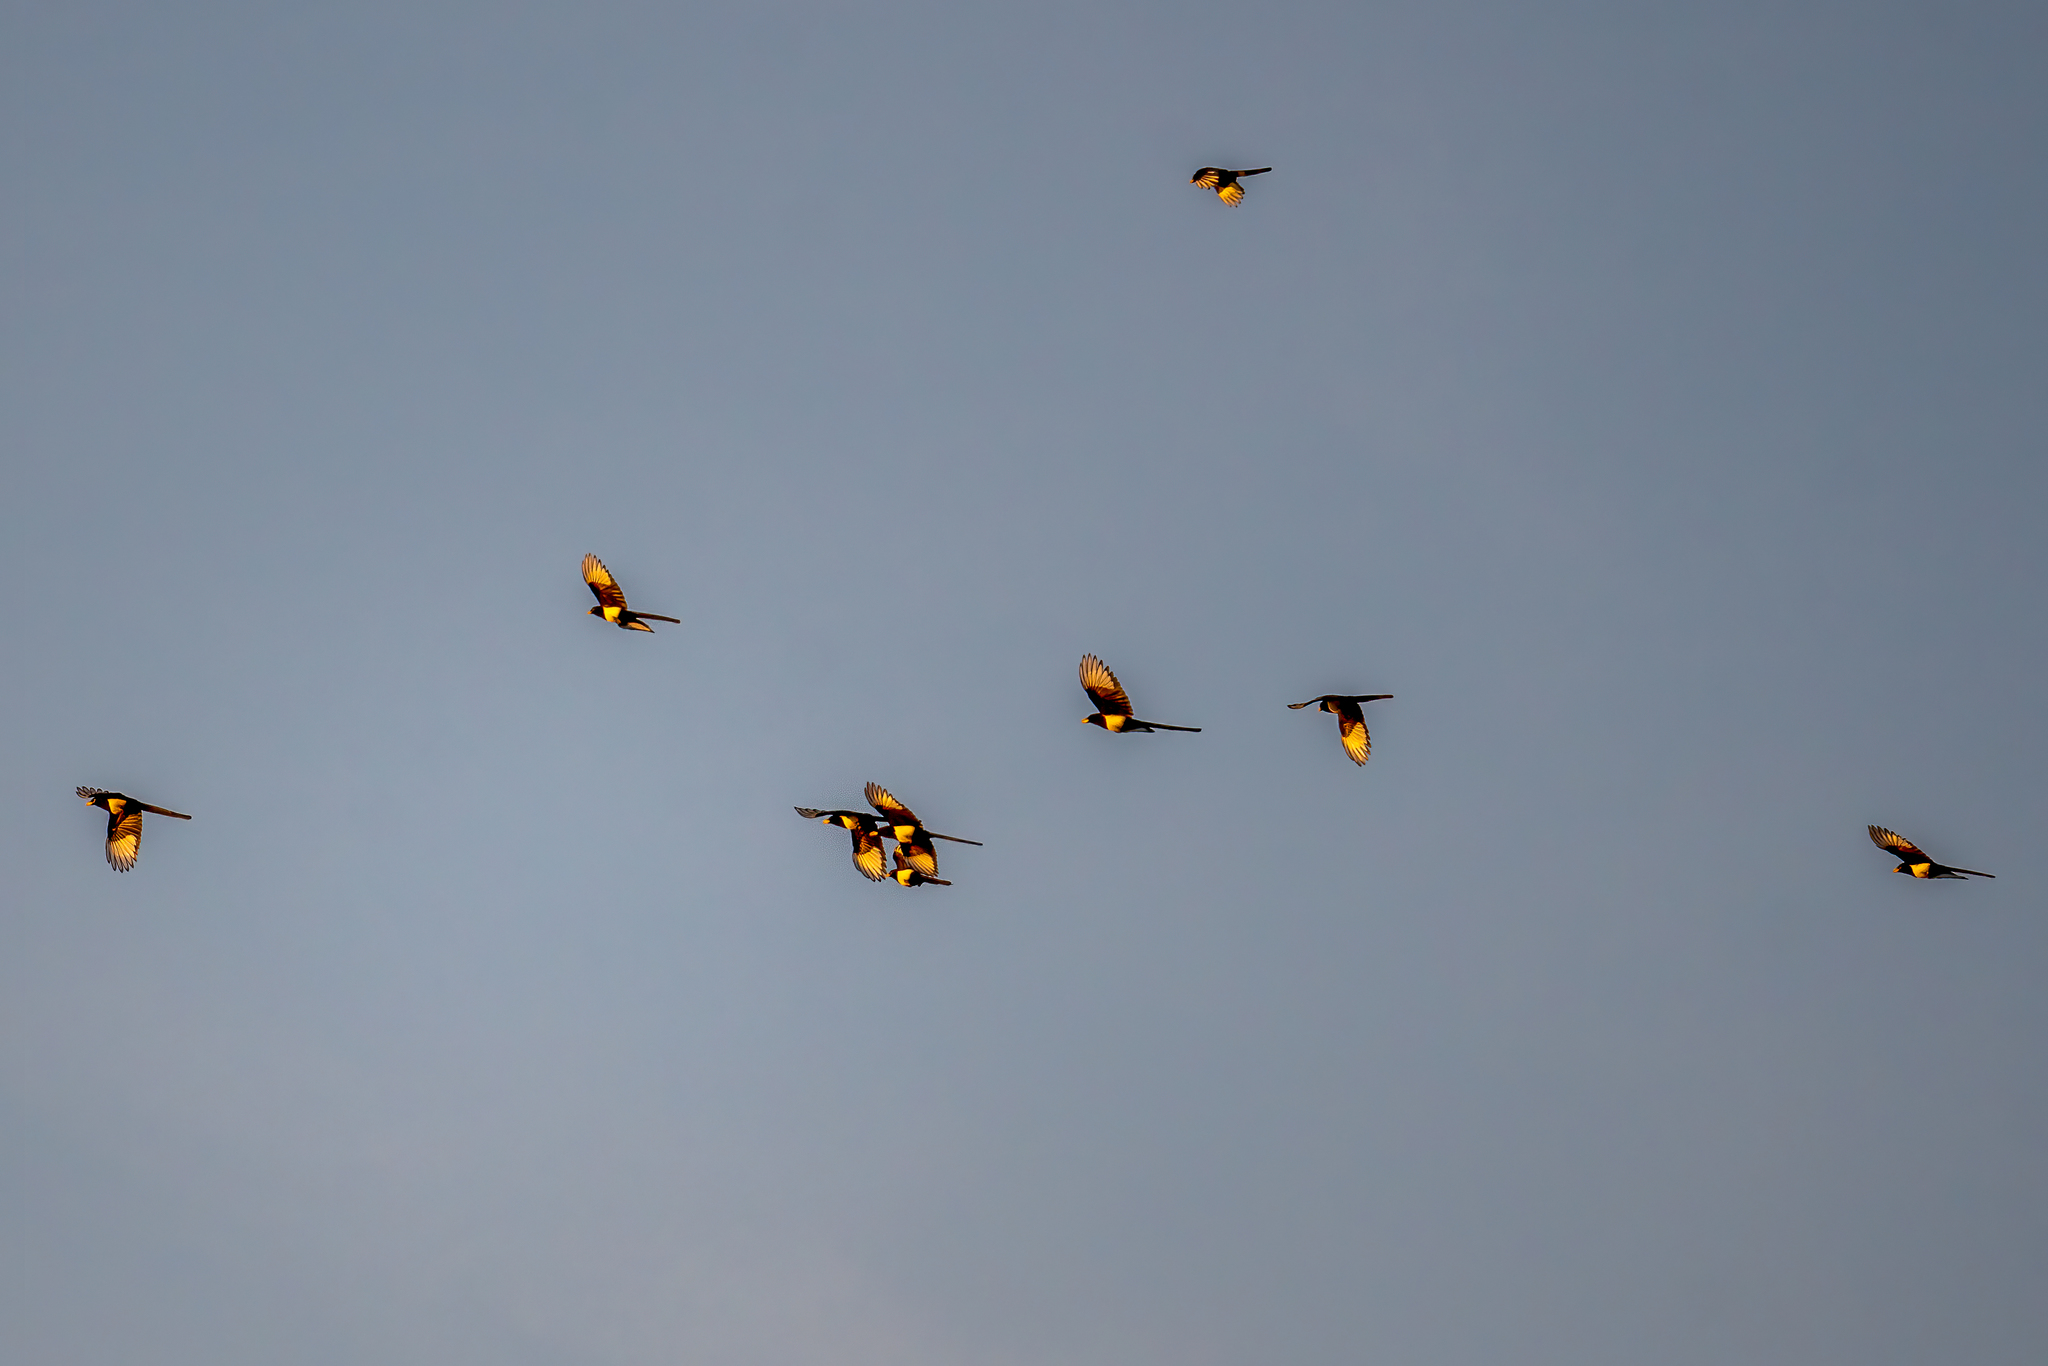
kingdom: Animalia
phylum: Chordata
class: Aves
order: Passeriformes
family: Corvidae
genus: Pica
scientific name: Pica nuttalli
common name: Yellow-billed magpie
